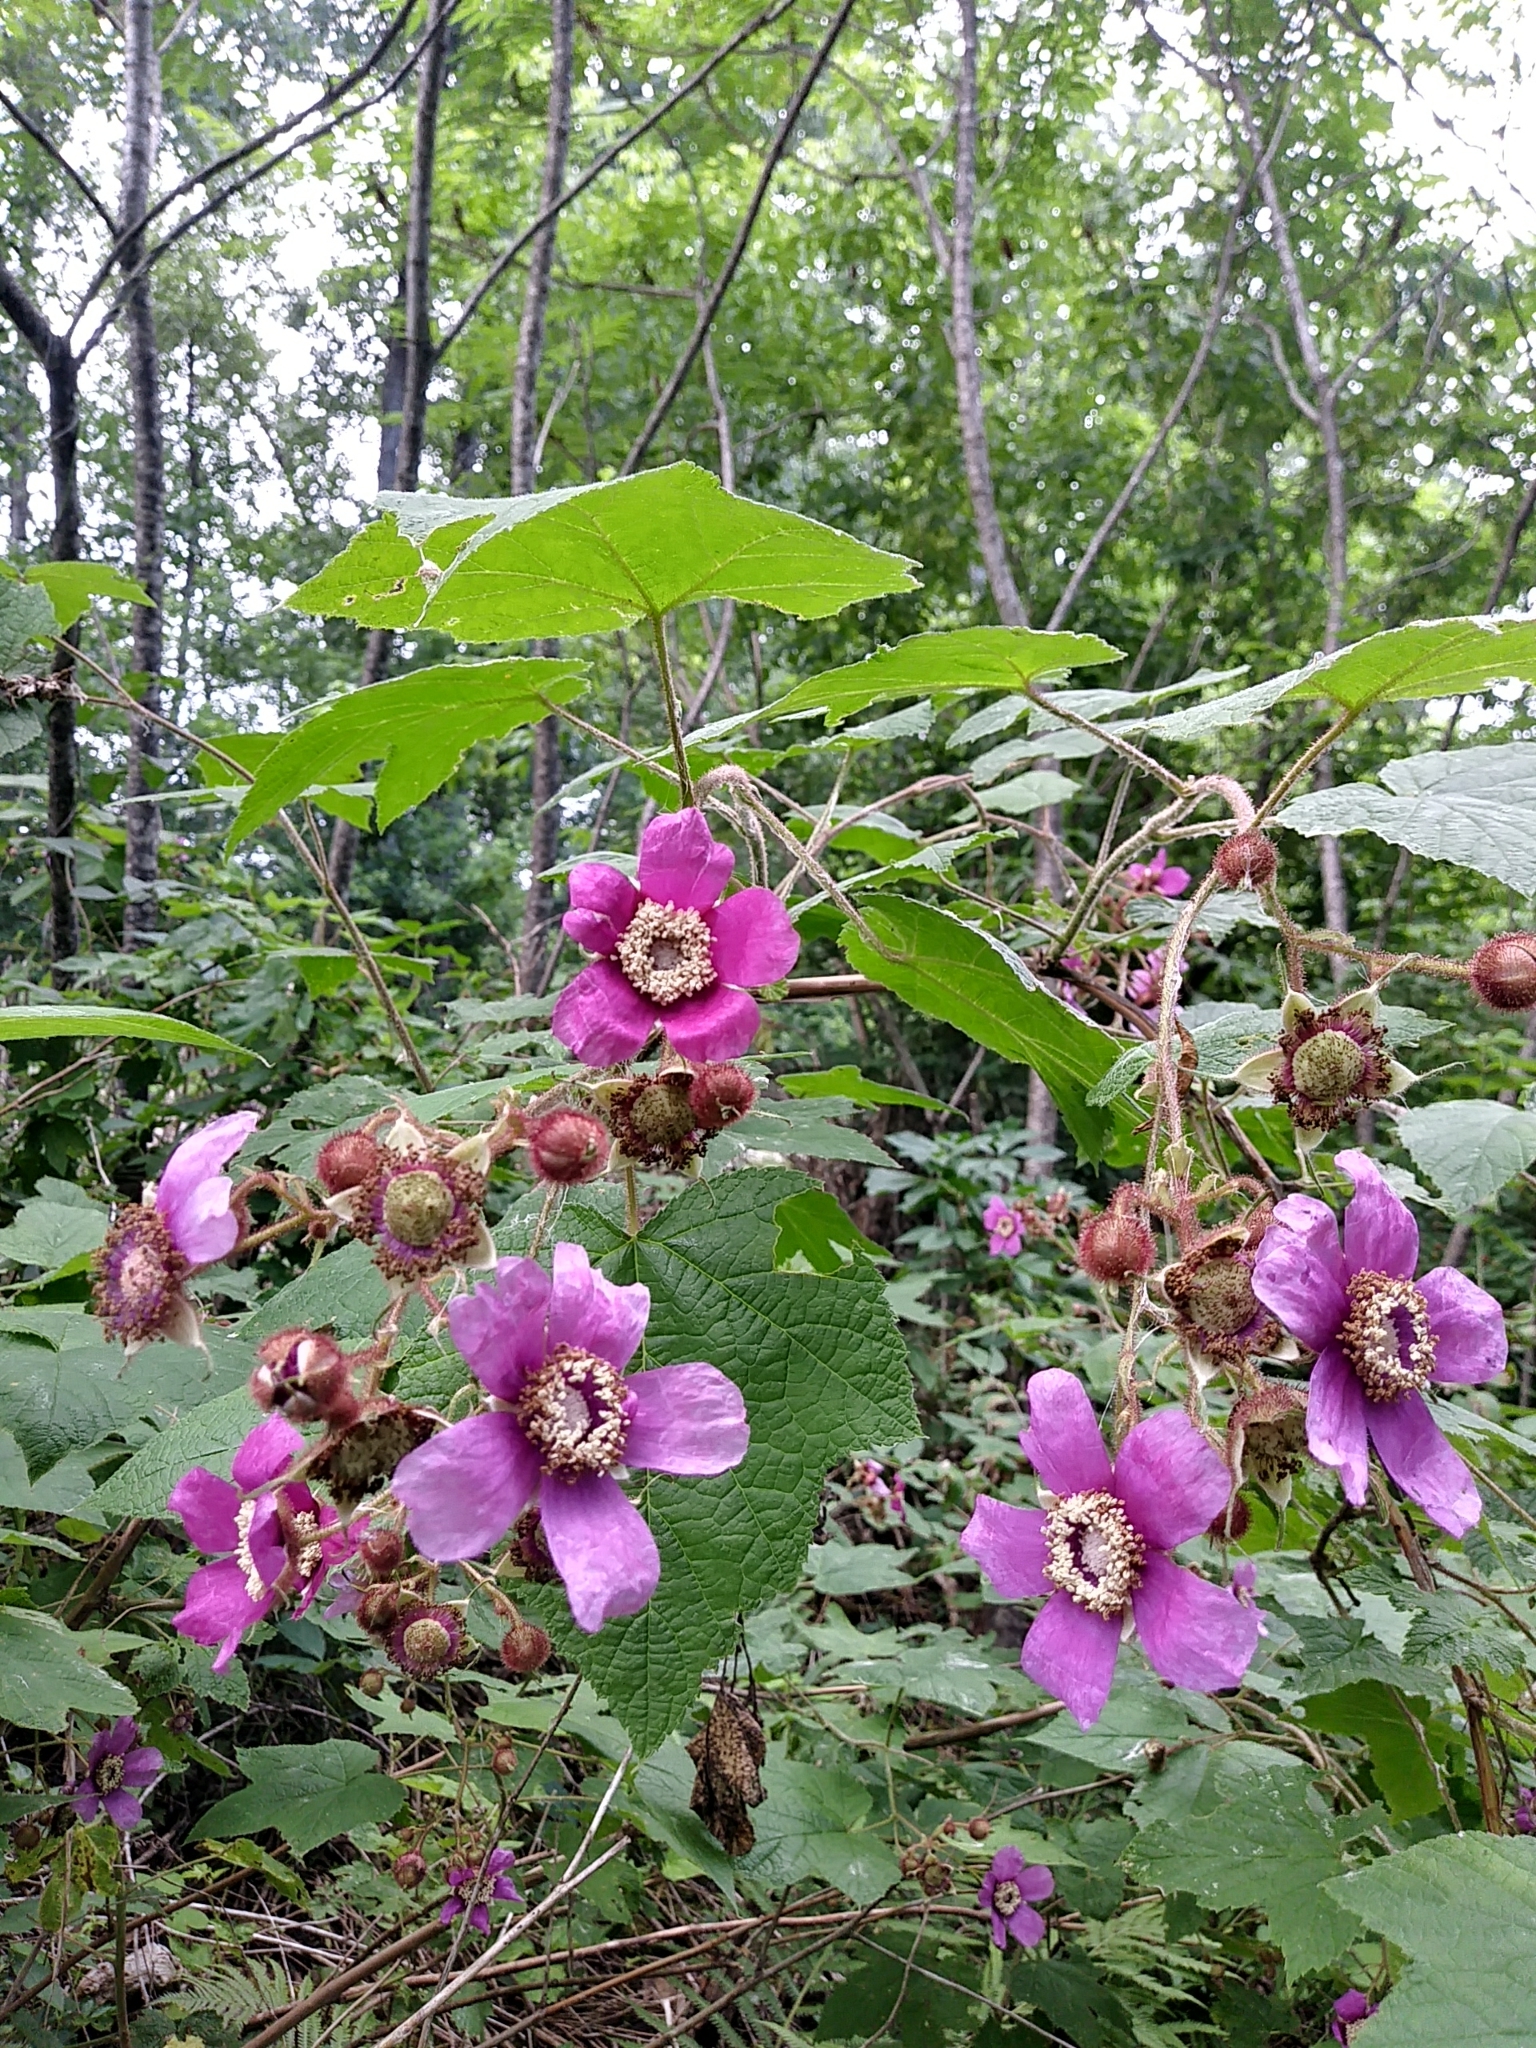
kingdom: Plantae
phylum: Tracheophyta
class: Magnoliopsida
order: Rosales
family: Rosaceae
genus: Rubus
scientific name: Rubus odoratus
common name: Purple-flowered raspberry
